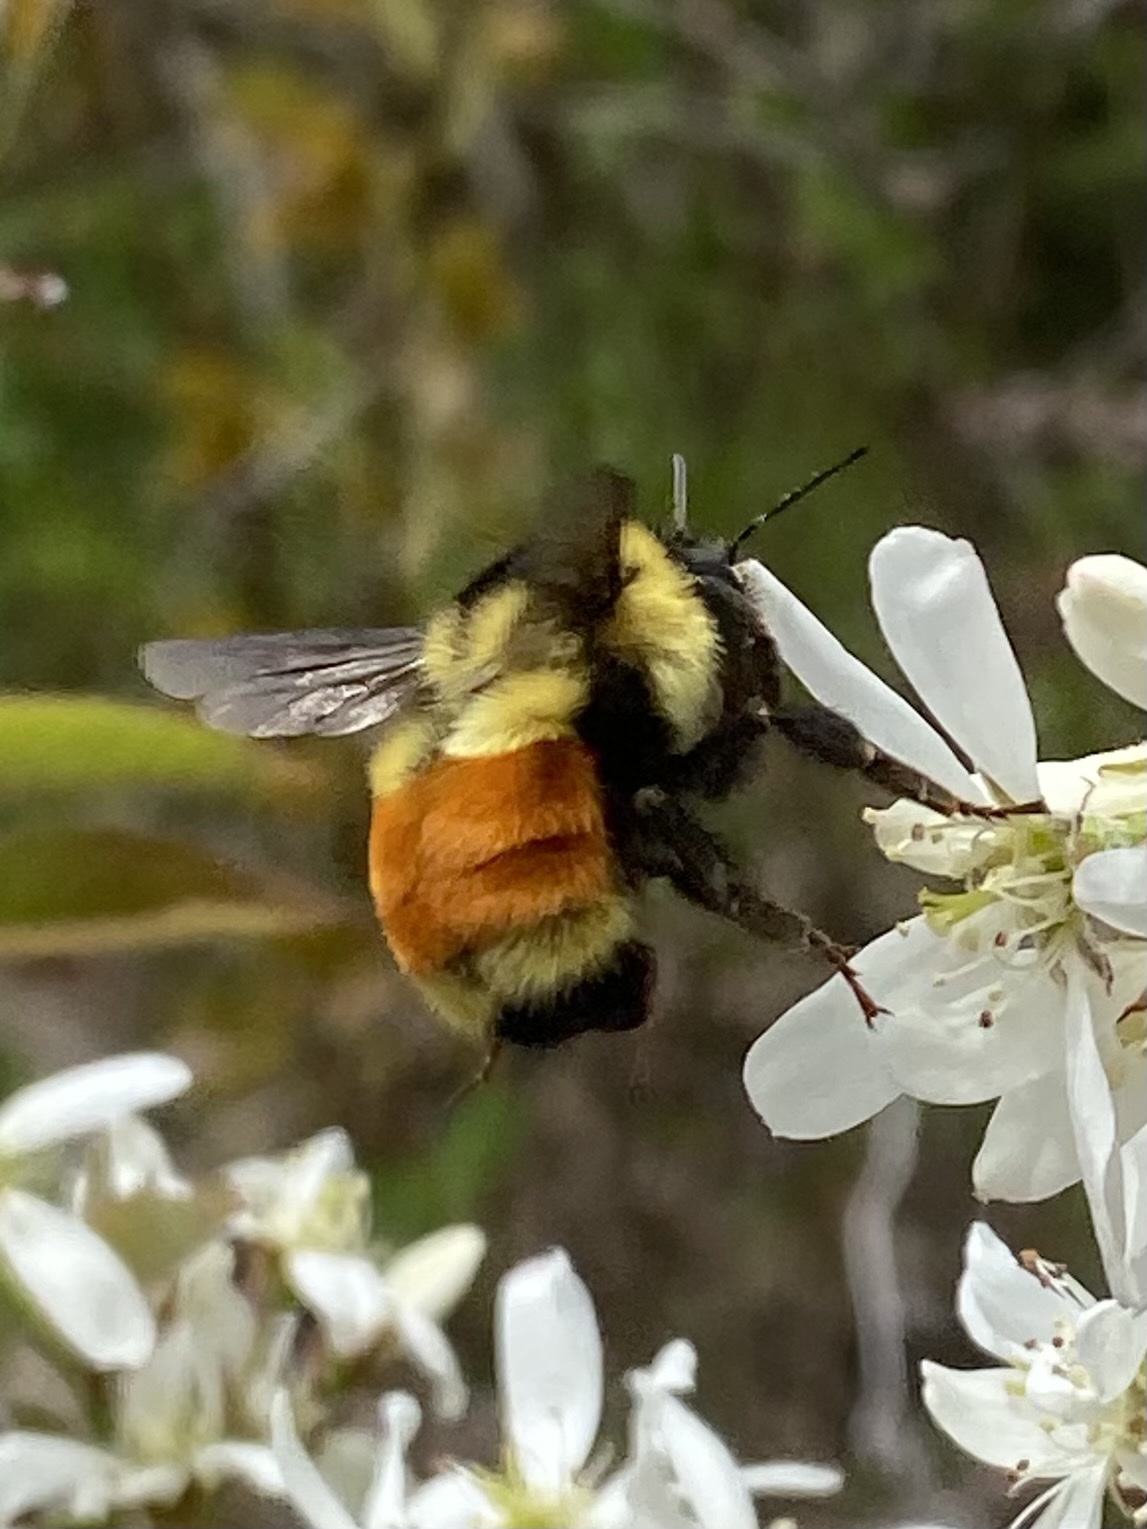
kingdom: Animalia
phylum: Arthropoda
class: Insecta
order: Hymenoptera
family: Apidae
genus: Bombus
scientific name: Bombus ternarius
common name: Tri-colored bumble bee
